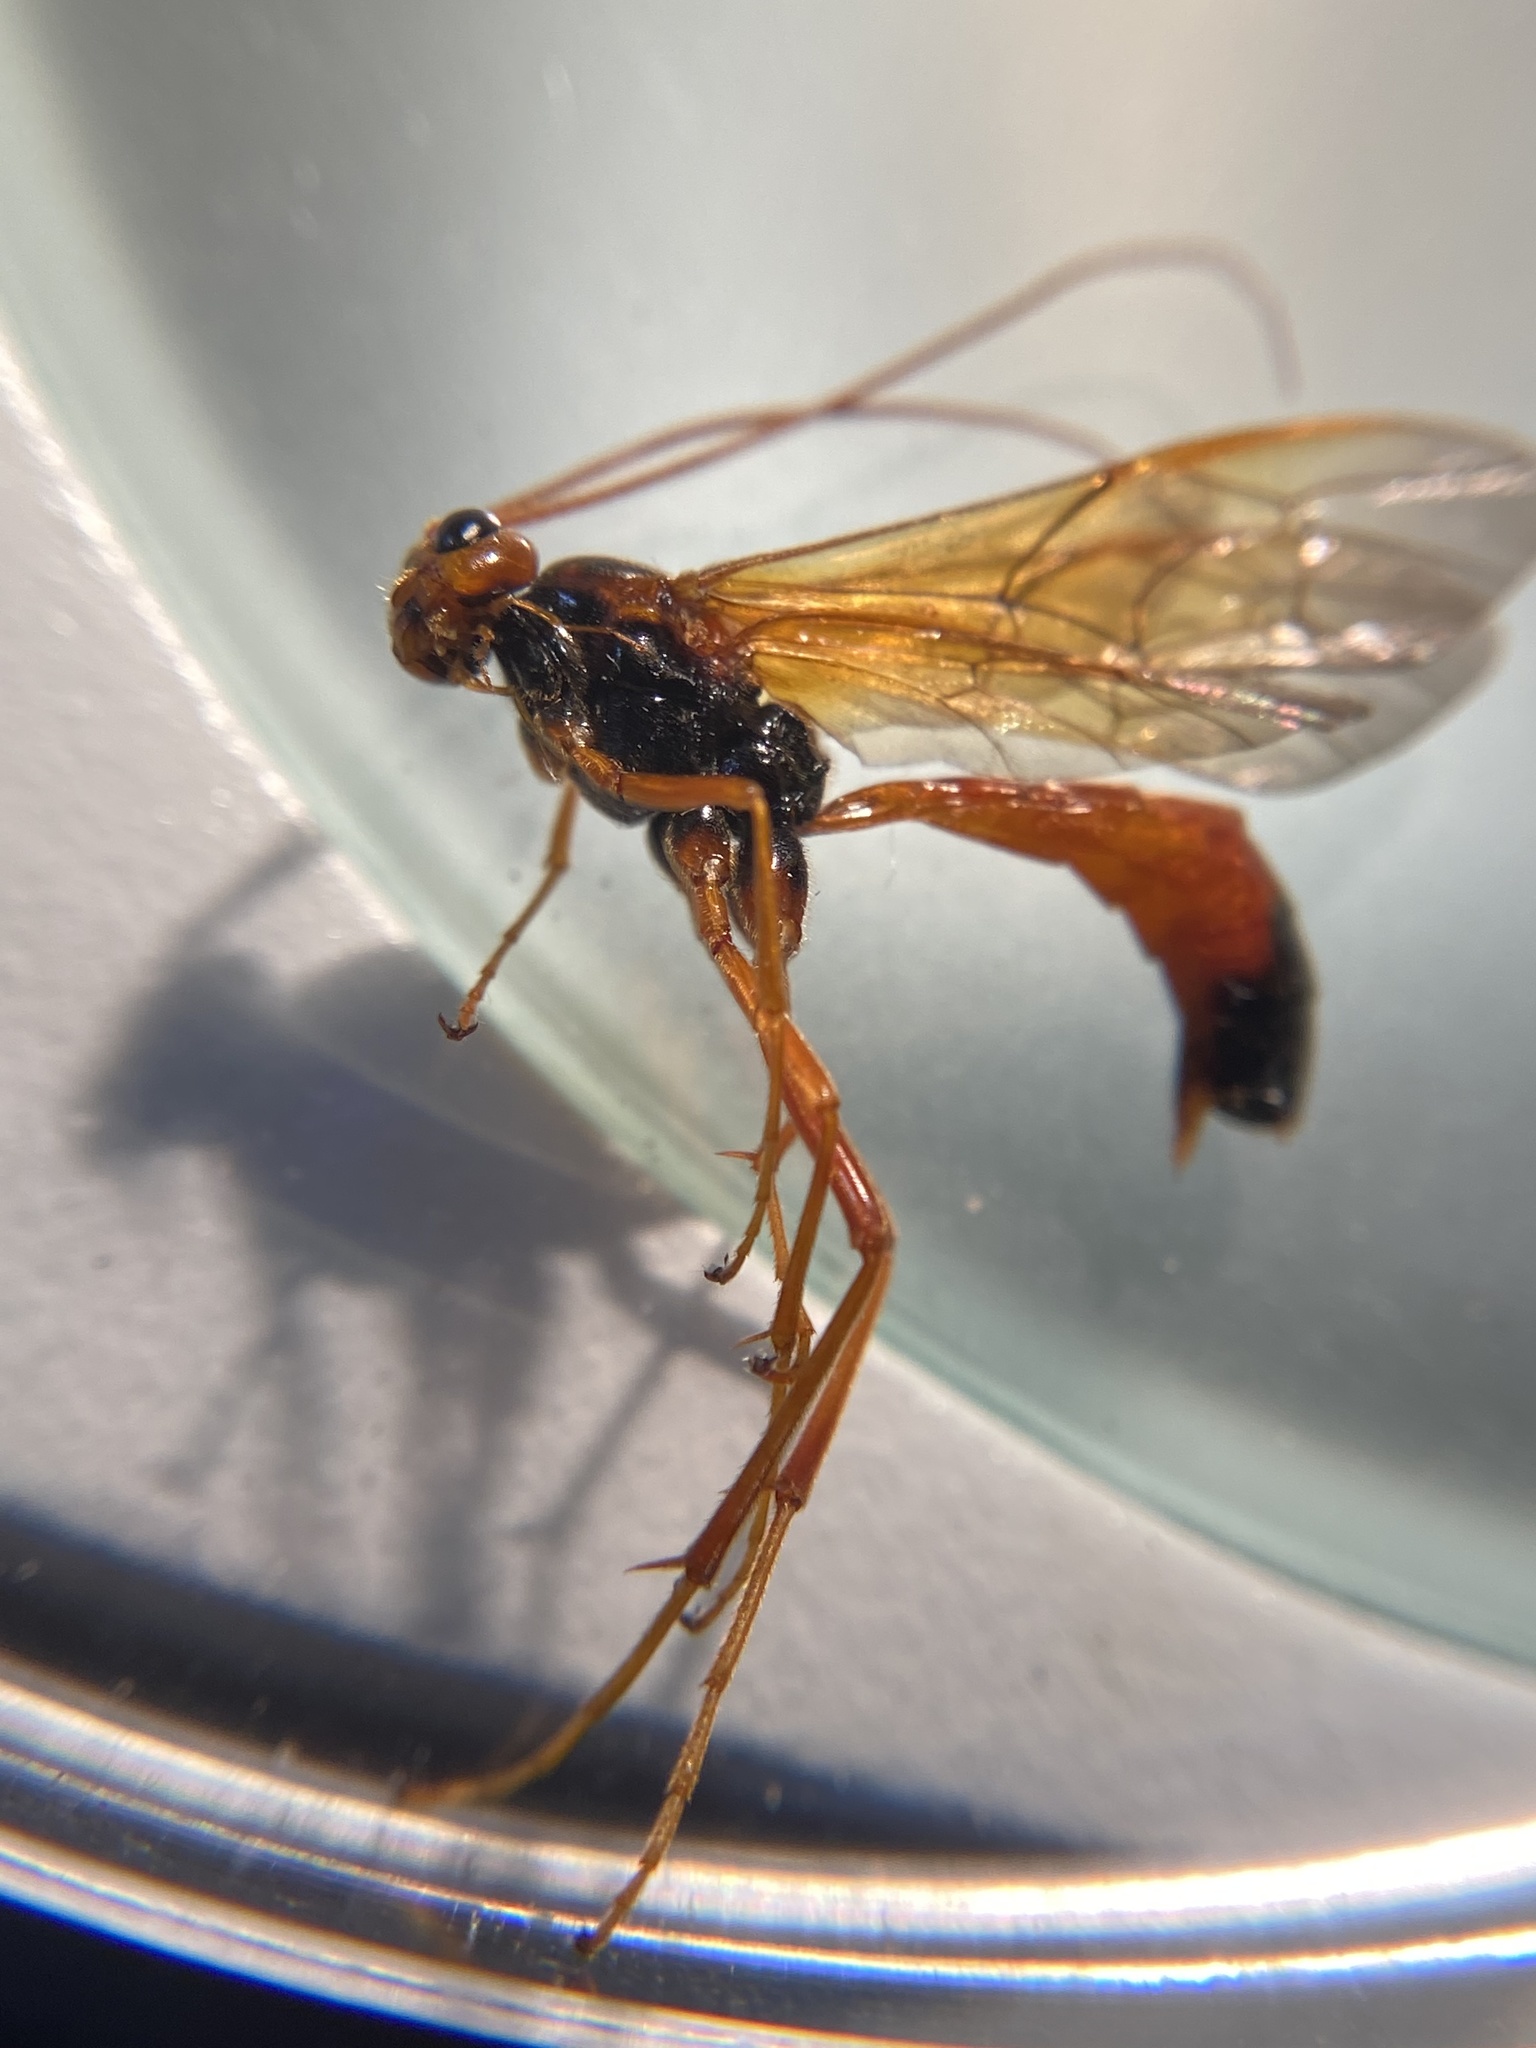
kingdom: Animalia
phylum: Arthropoda
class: Insecta
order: Hymenoptera
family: Ichneumonidae
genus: Opheltes
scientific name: Opheltes glaucopterus
